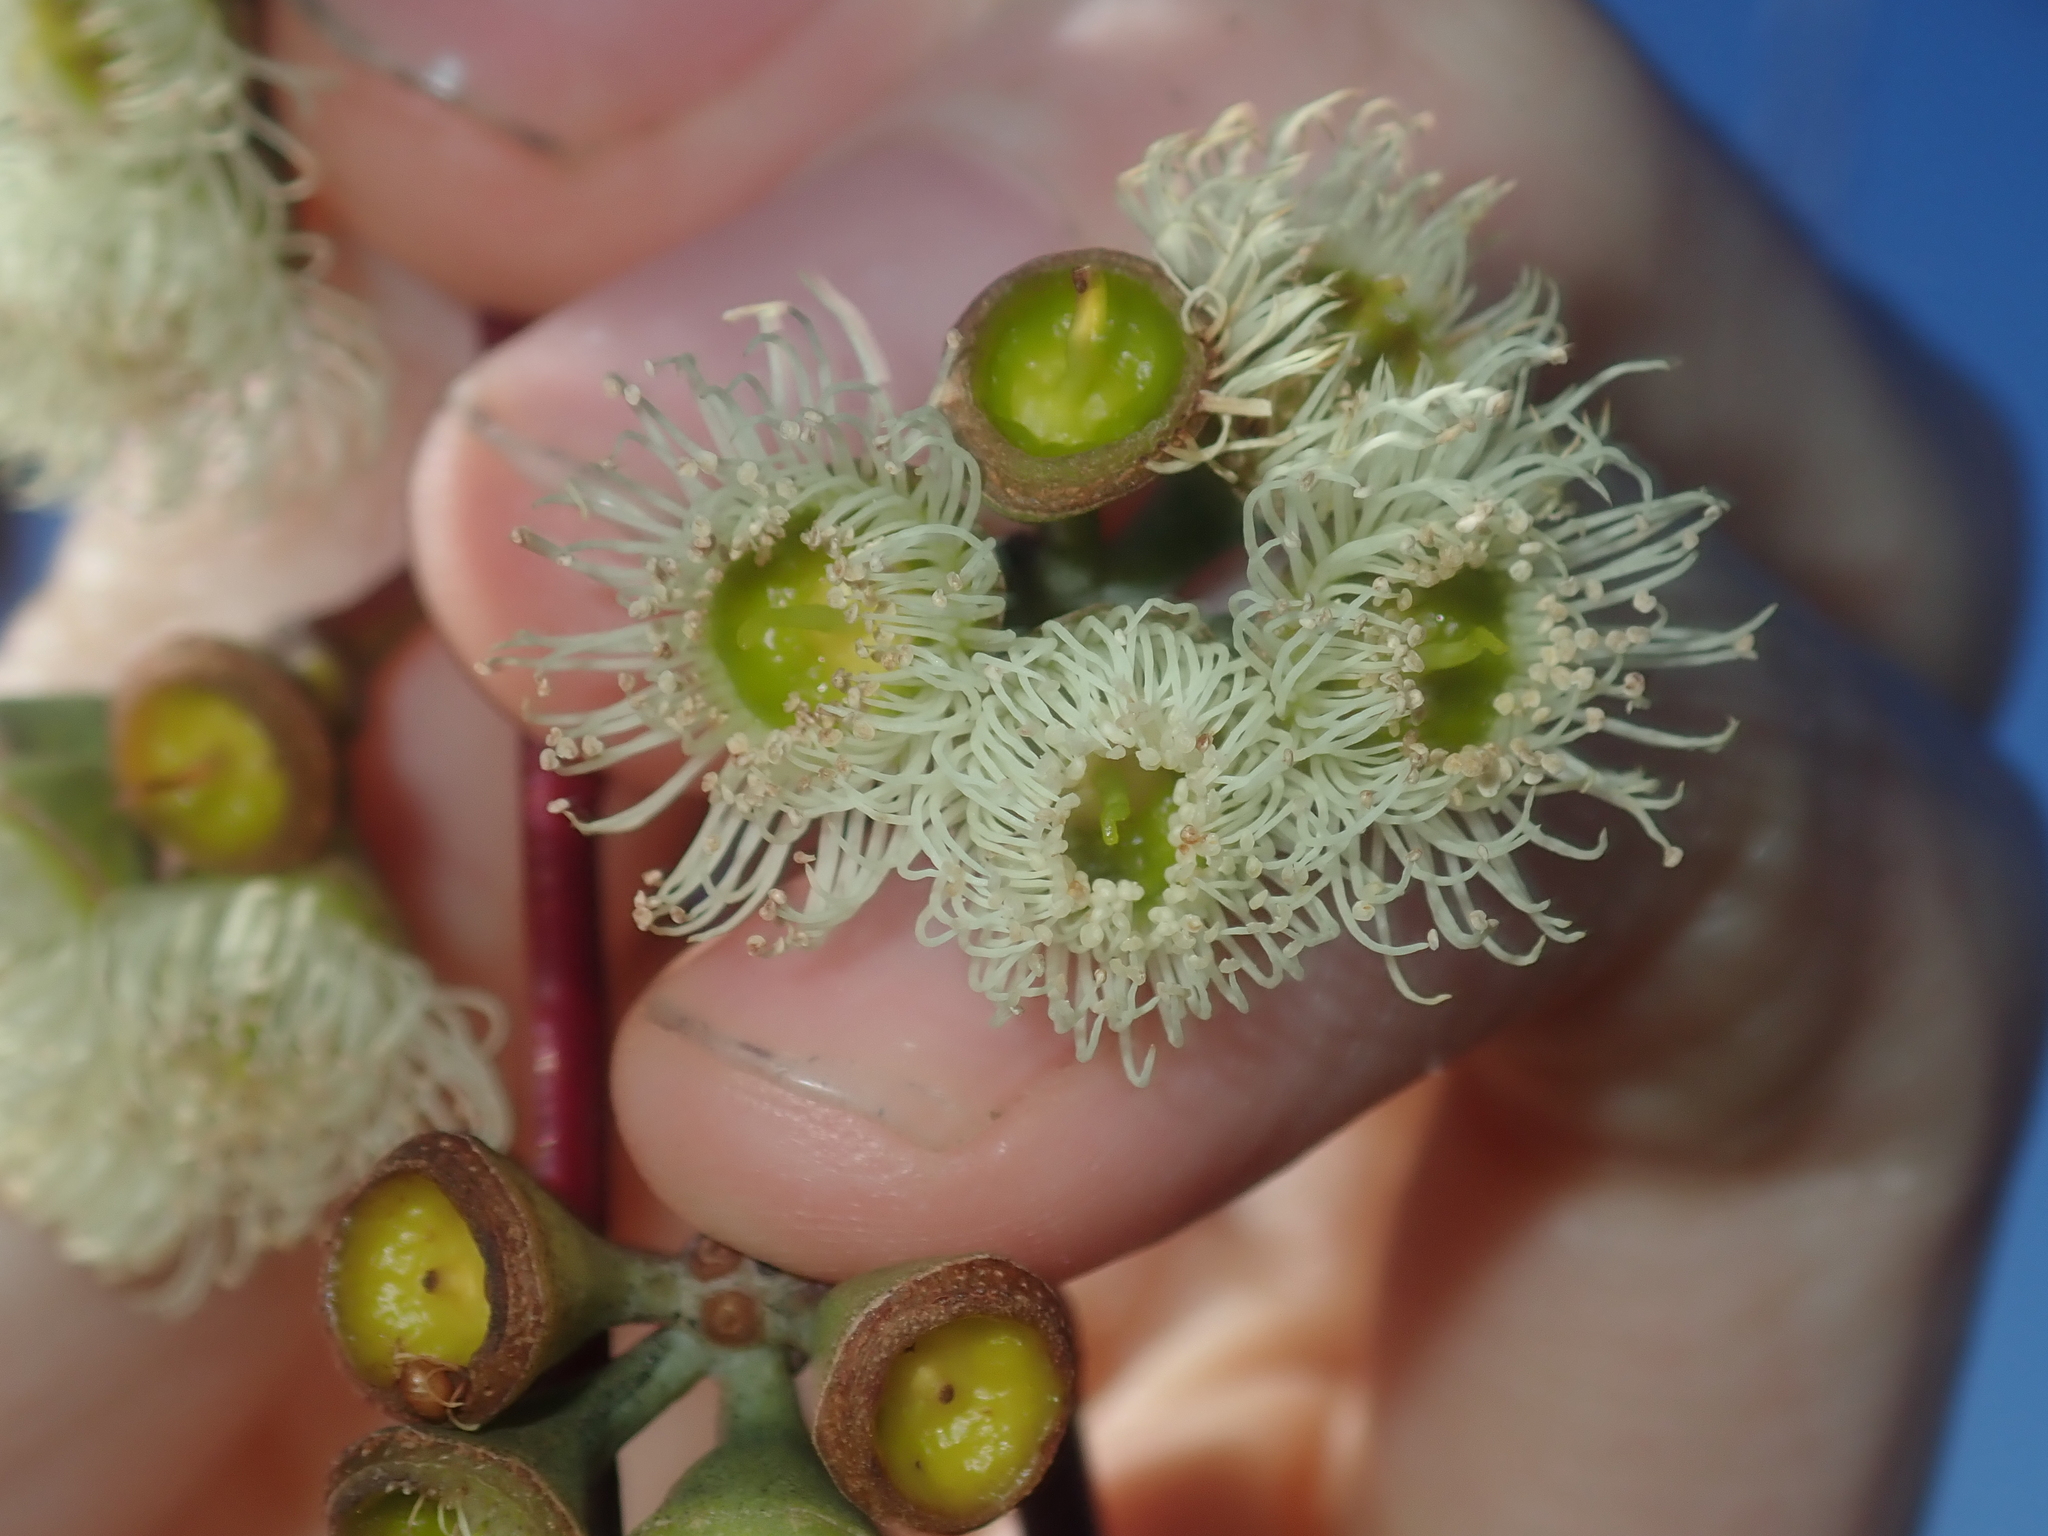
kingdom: Plantae
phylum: Tracheophyta
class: Magnoliopsida
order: Myrtales
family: Myrtaceae
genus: Eucalyptus
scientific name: Eucalyptus pendens
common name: Badgingarra mallee
